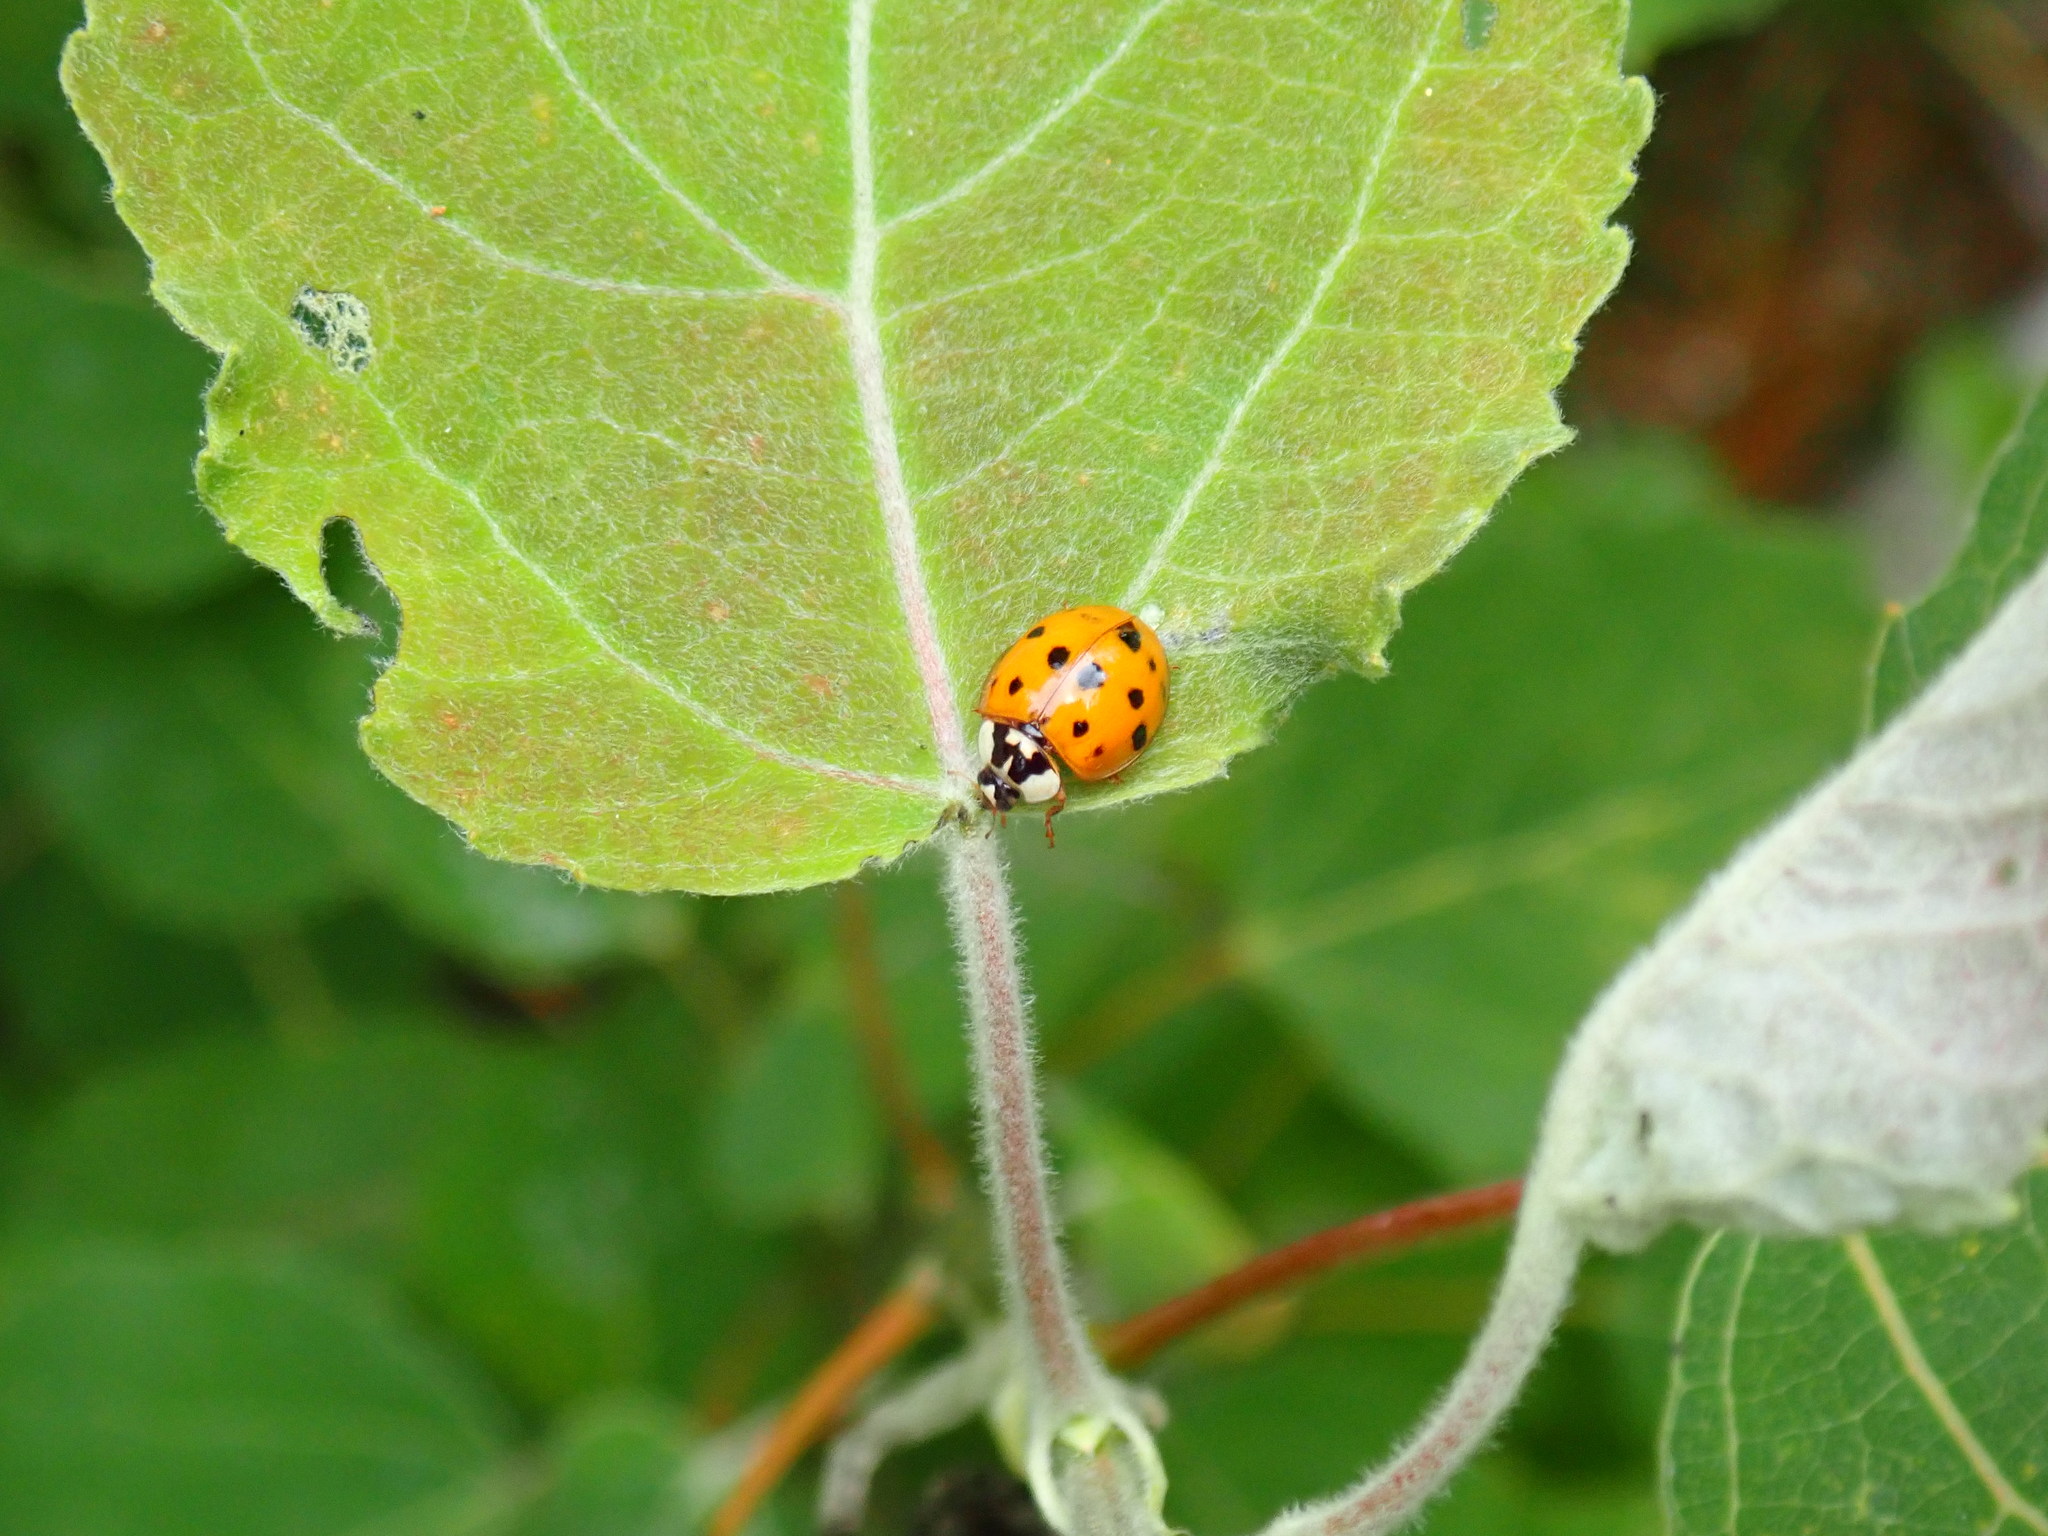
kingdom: Animalia
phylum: Arthropoda
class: Insecta
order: Coleoptera
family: Coccinellidae
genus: Harmonia
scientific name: Harmonia axyridis
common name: Harlequin ladybird
